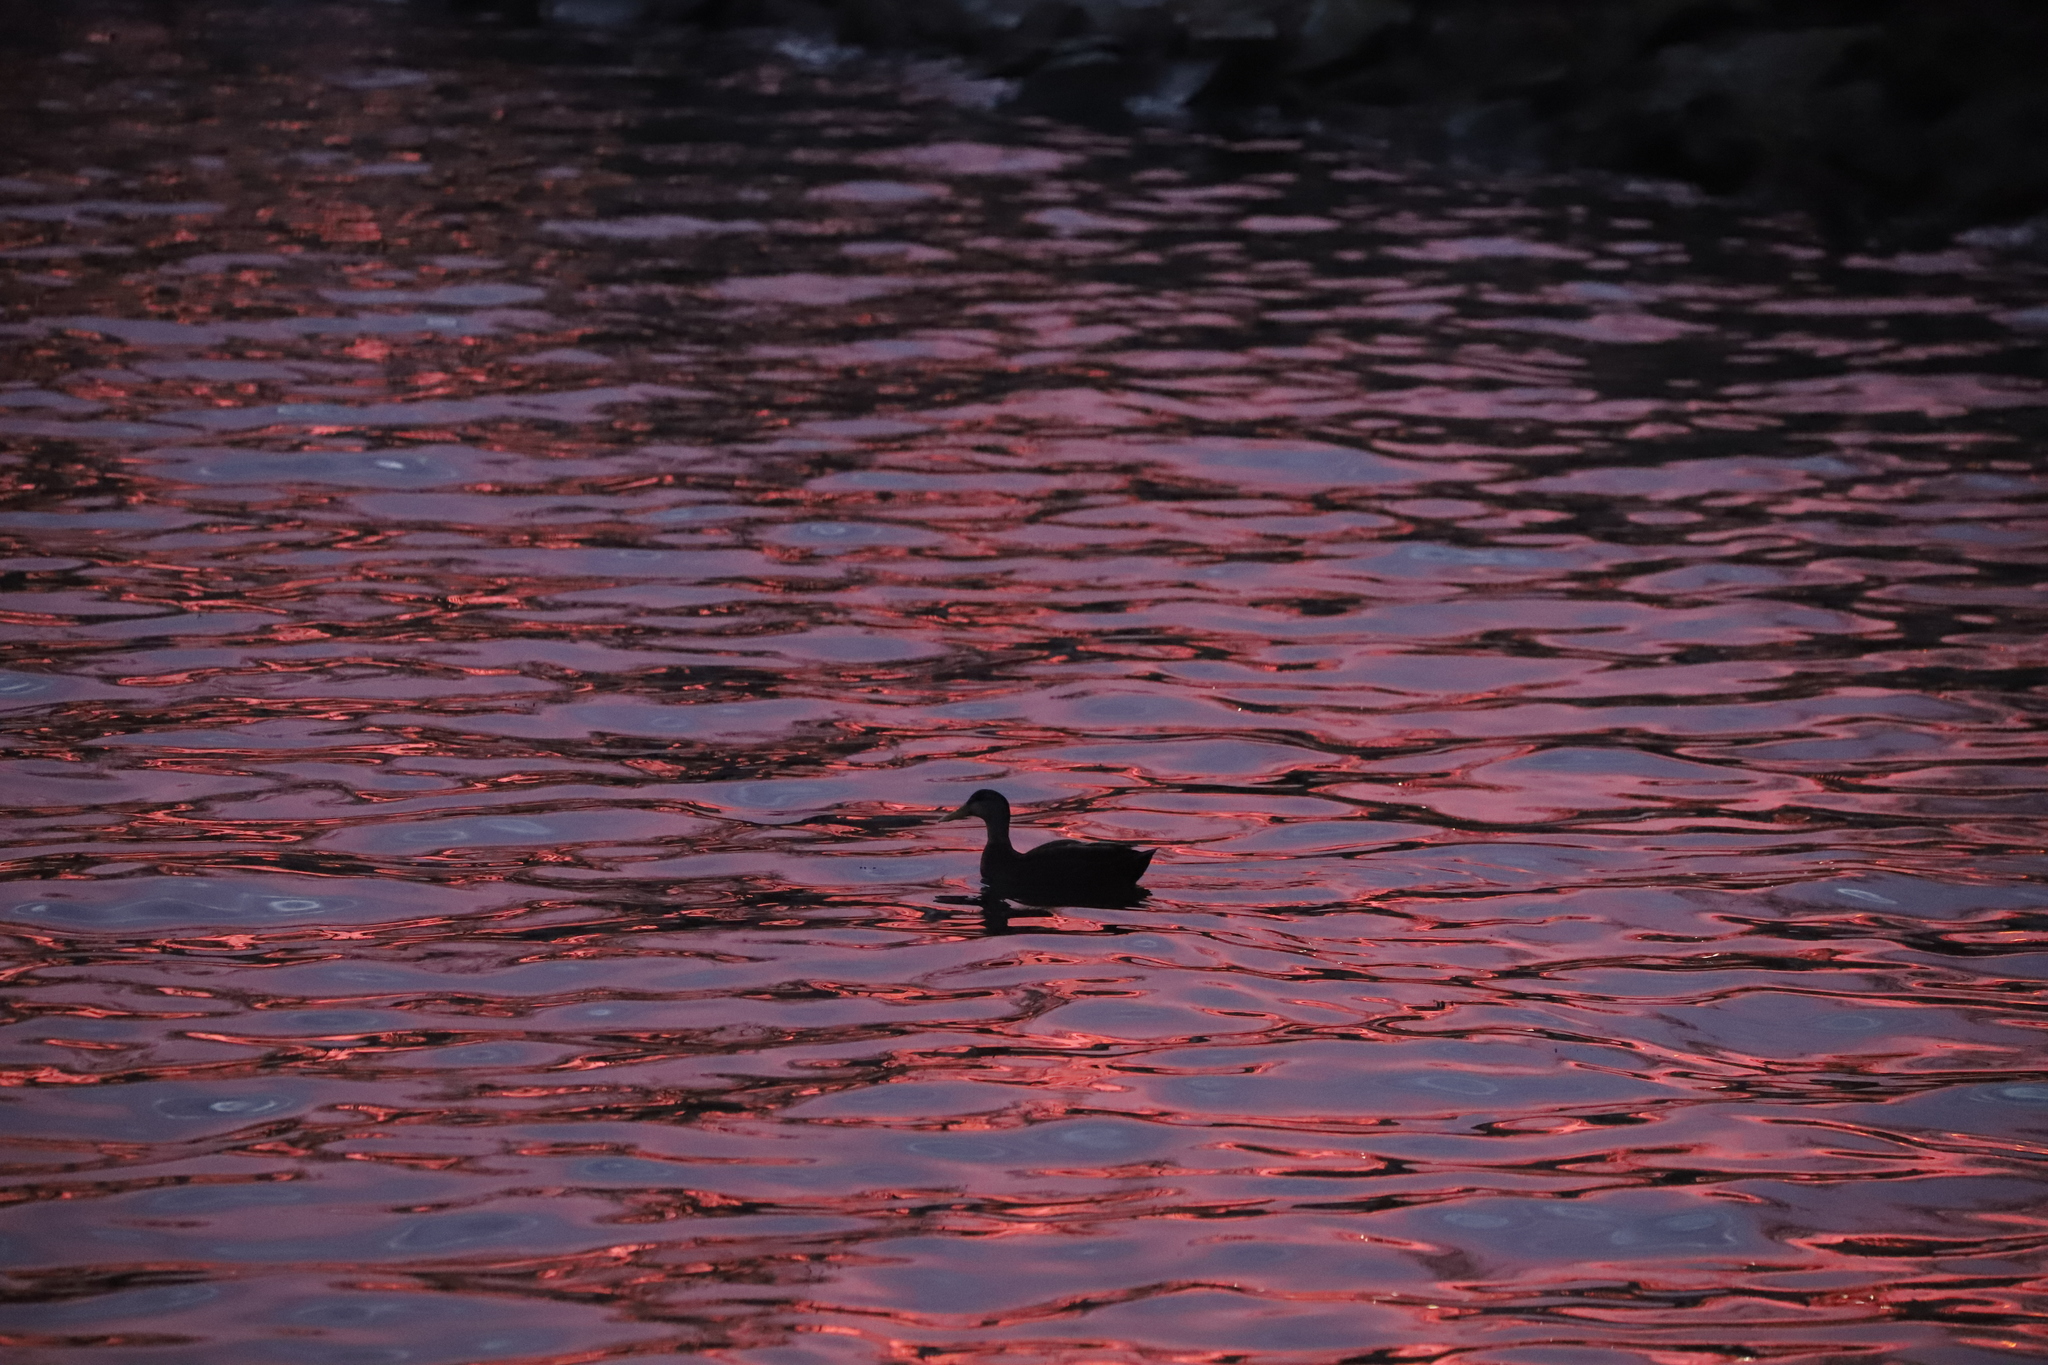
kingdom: Animalia
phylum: Chordata
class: Aves
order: Anseriformes
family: Anatidae
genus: Anas
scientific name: Anas rubripes
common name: American black duck
